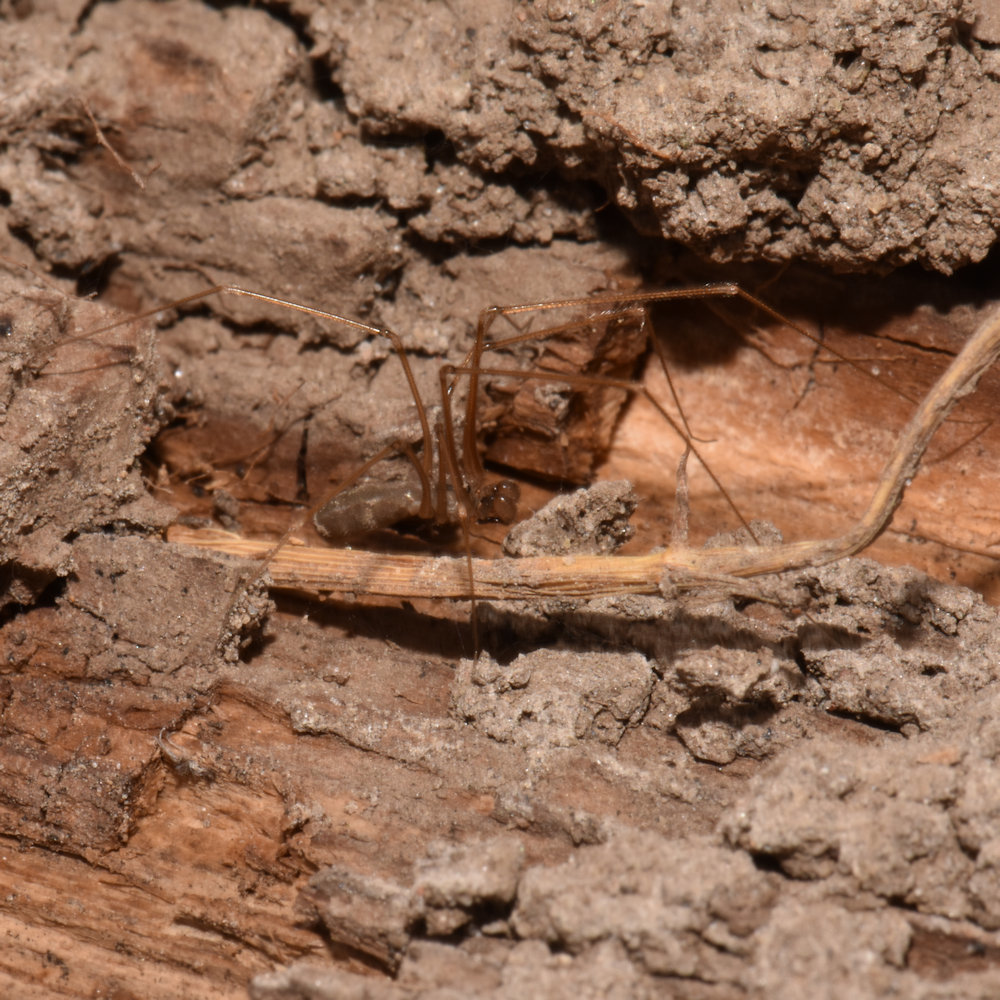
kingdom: Animalia
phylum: Arthropoda
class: Arachnida
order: Araneae
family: Pholcidae
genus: Pholcus
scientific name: Pholcus opilionoides
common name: Daddylongleg spider
